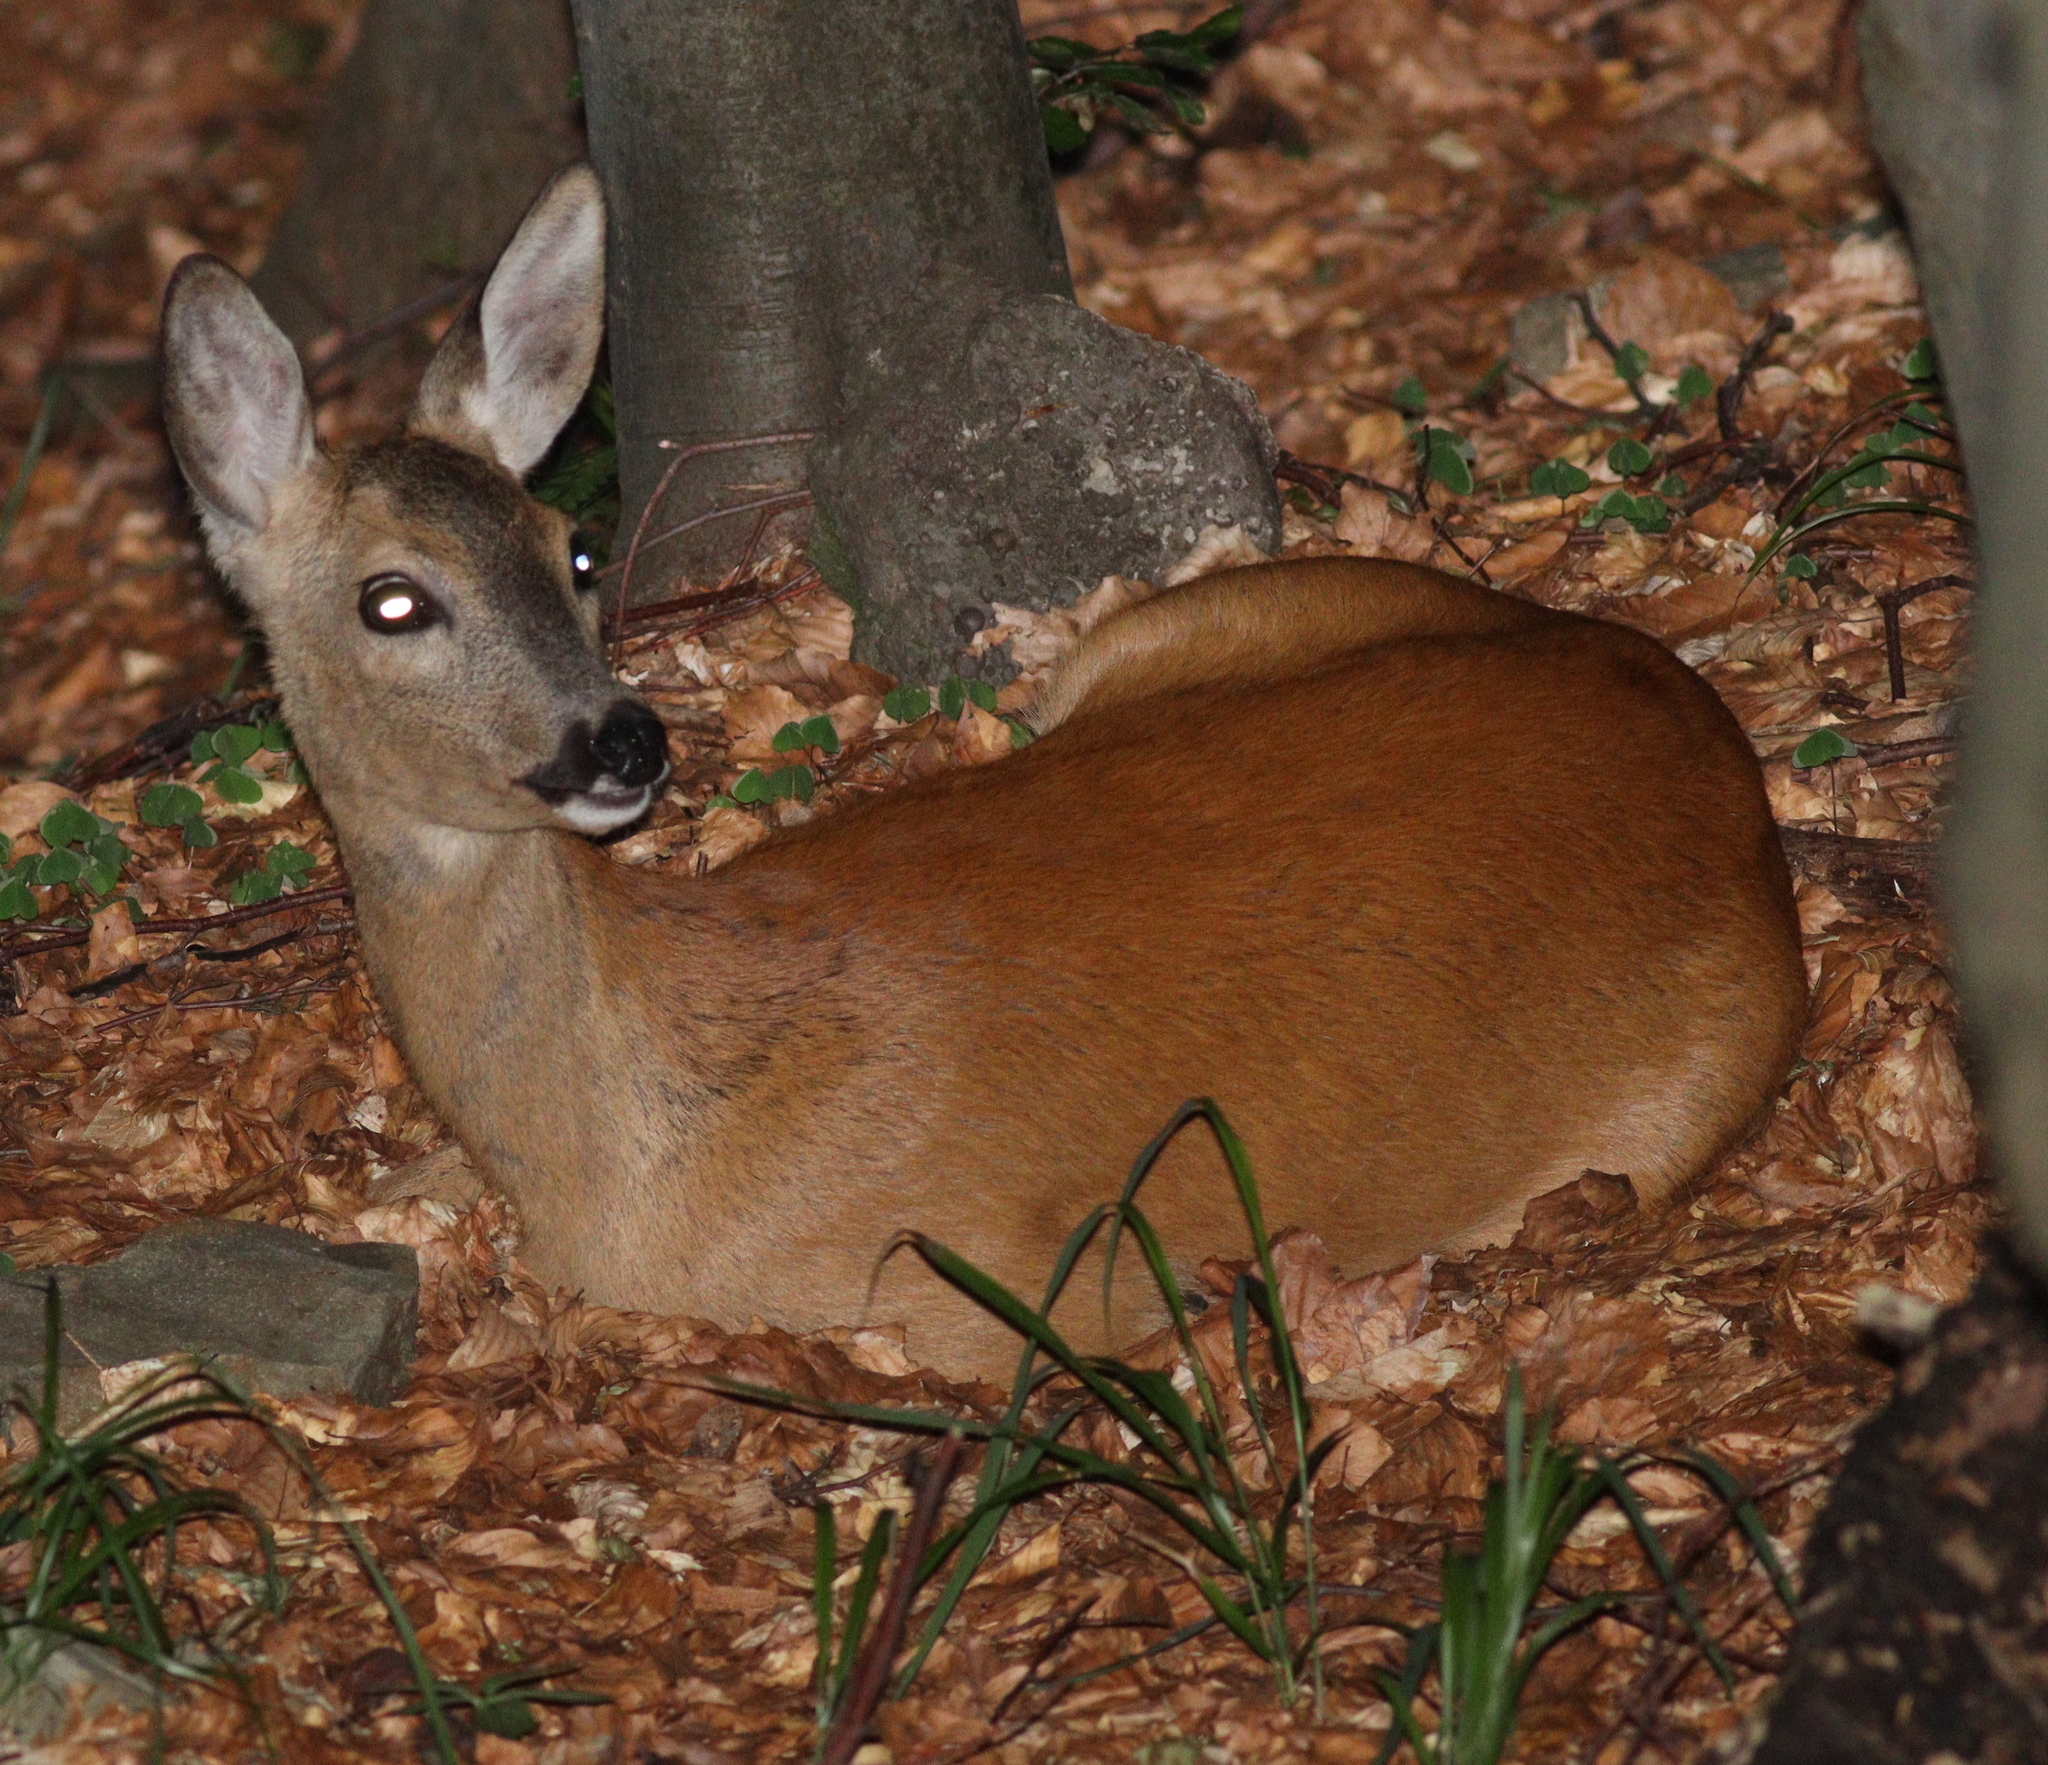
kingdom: Animalia
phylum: Chordata
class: Mammalia
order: Artiodactyla
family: Cervidae
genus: Capreolus
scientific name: Capreolus capreolus
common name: Western roe deer
